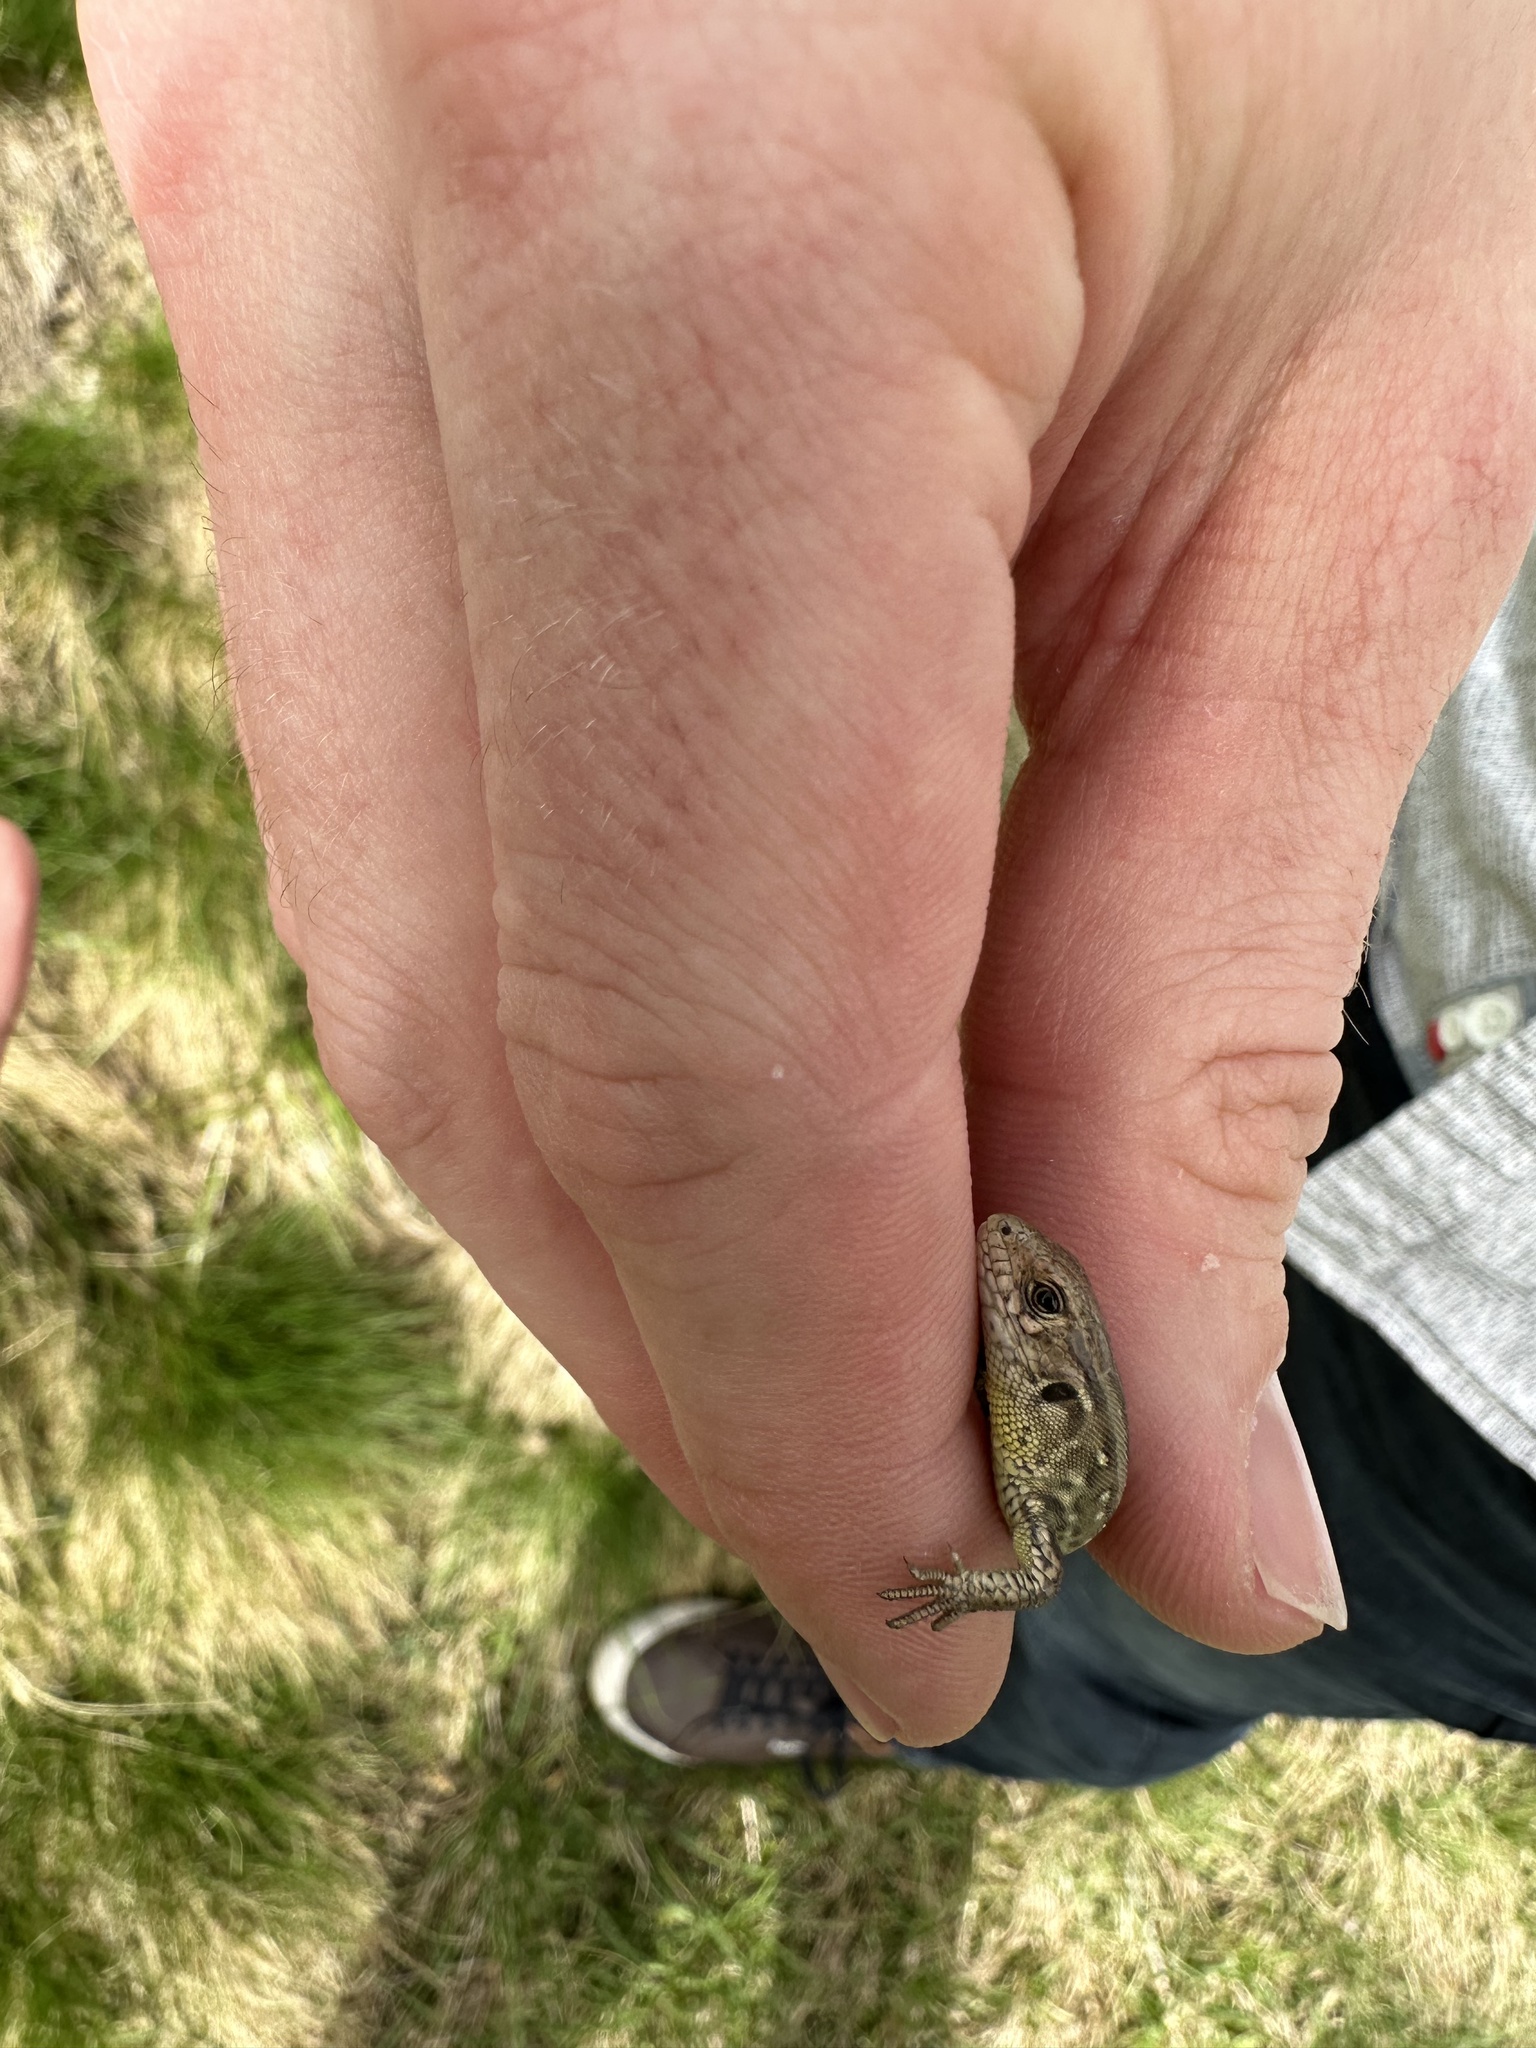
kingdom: Animalia
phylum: Chordata
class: Squamata
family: Lacertidae
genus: Lacerta
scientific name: Lacerta agilis
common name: Sand lizard
